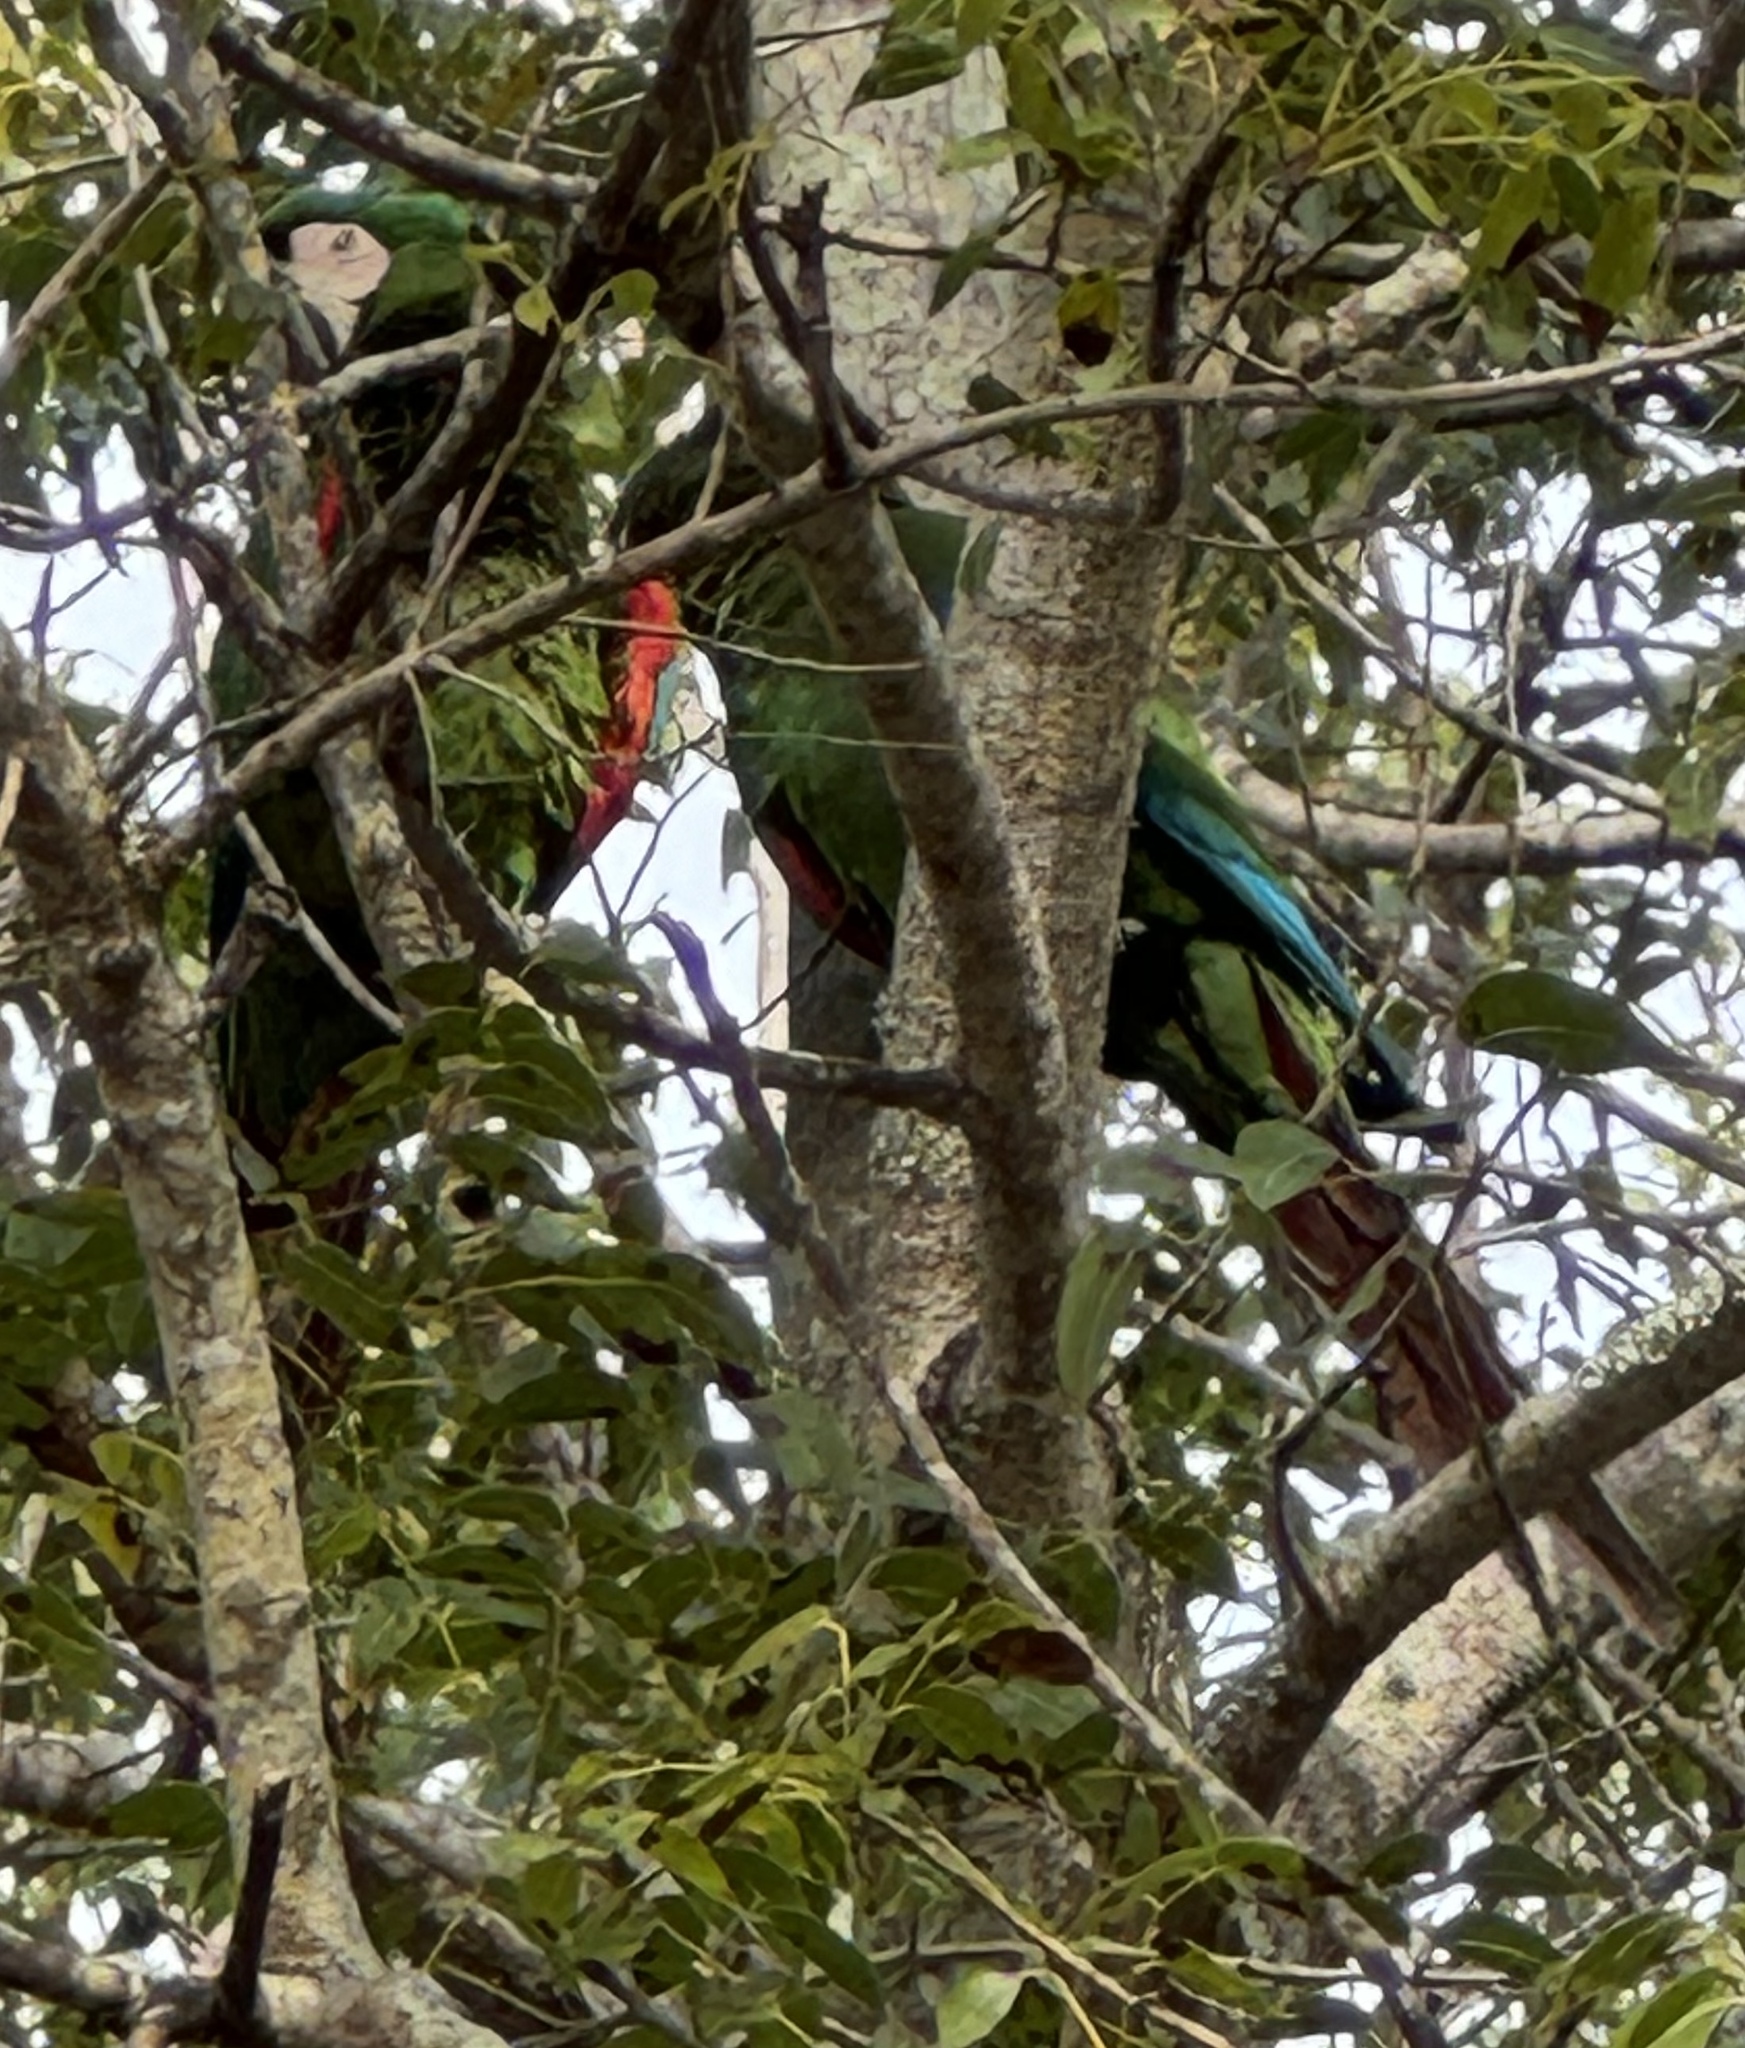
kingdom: Animalia
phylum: Chordata
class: Aves
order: Psittaciformes
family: Psittacidae
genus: Ara
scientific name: Ara severus
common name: Chestnut-fronted macaw
